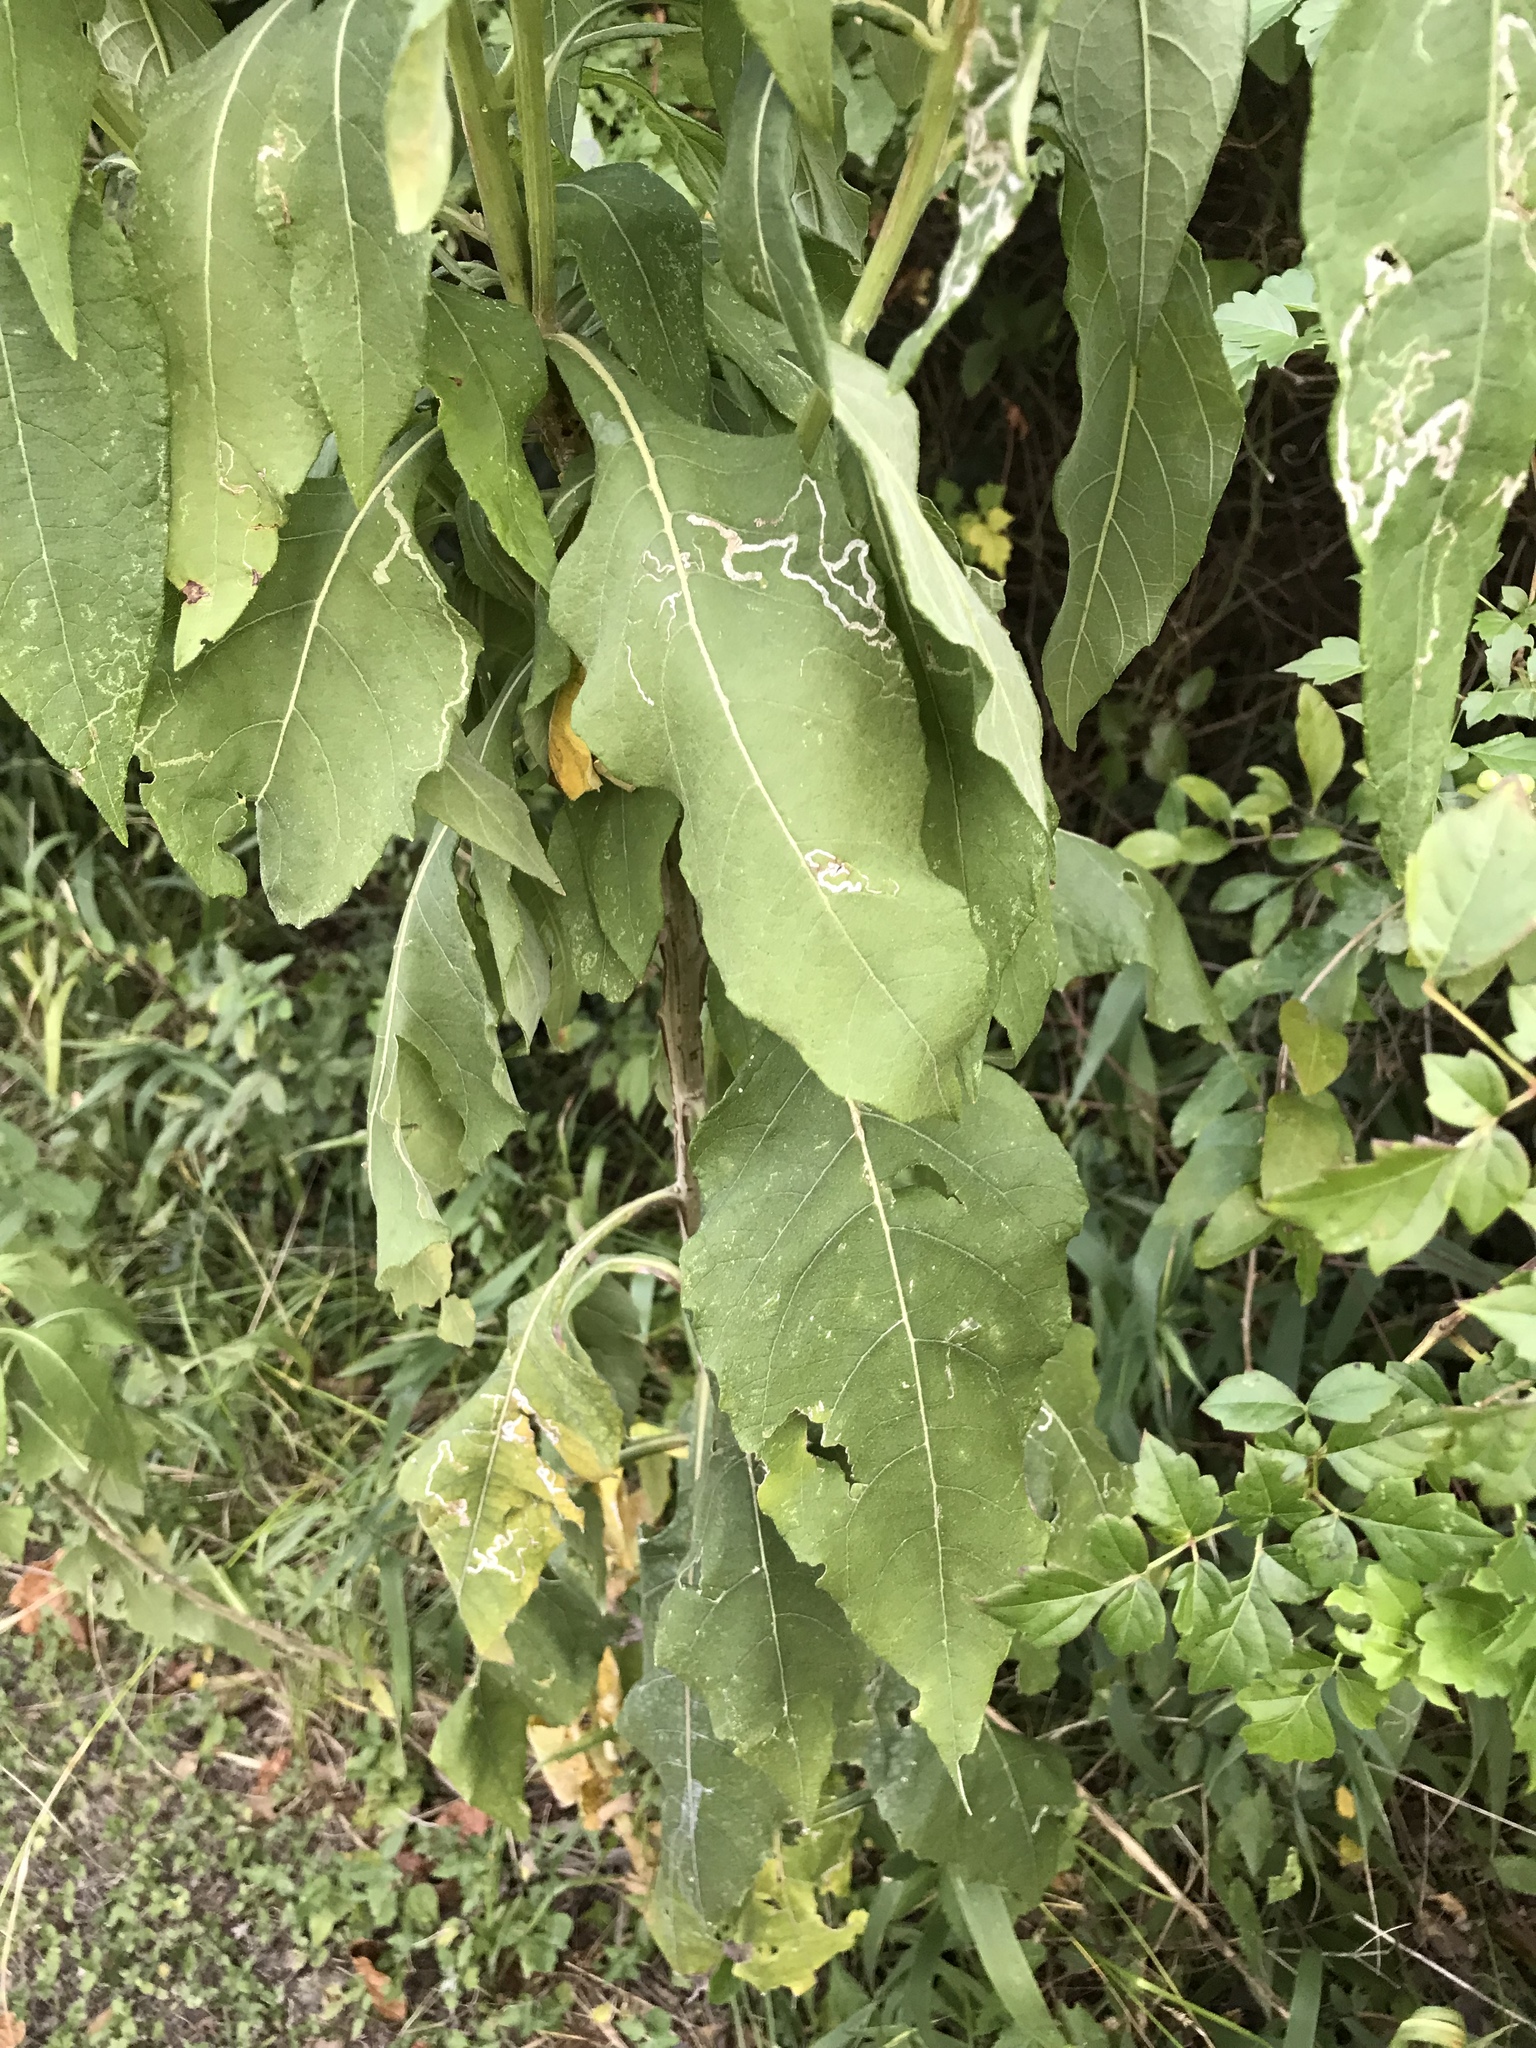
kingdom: Plantae
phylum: Tracheophyta
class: Magnoliopsida
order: Asterales
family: Asteraceae
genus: Verbesina
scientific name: Verbesina virginica
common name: Frostweed
